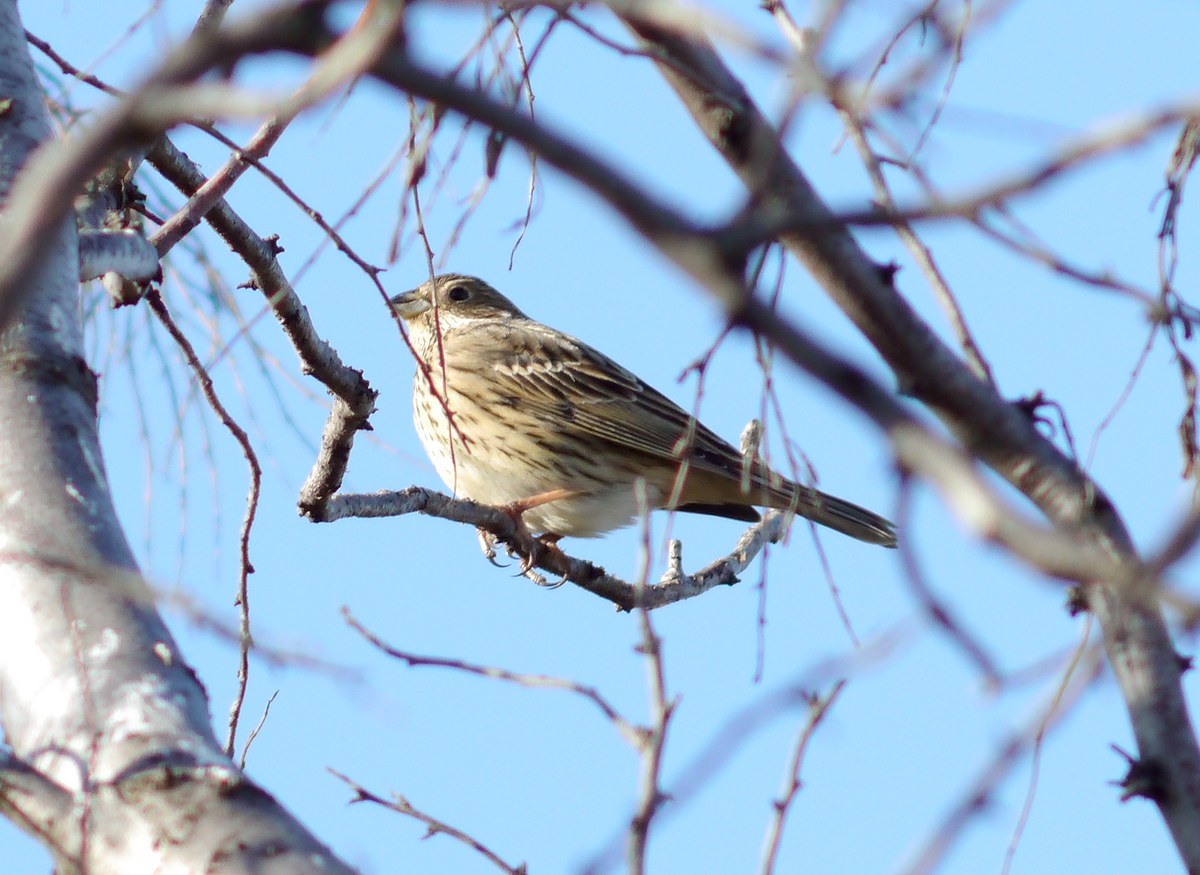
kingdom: Animalia
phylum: Chordata
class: Aves
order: Passeriformes
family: Emberizidae
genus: Emberiza
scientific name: Emberiza calandra
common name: Corn bunting
